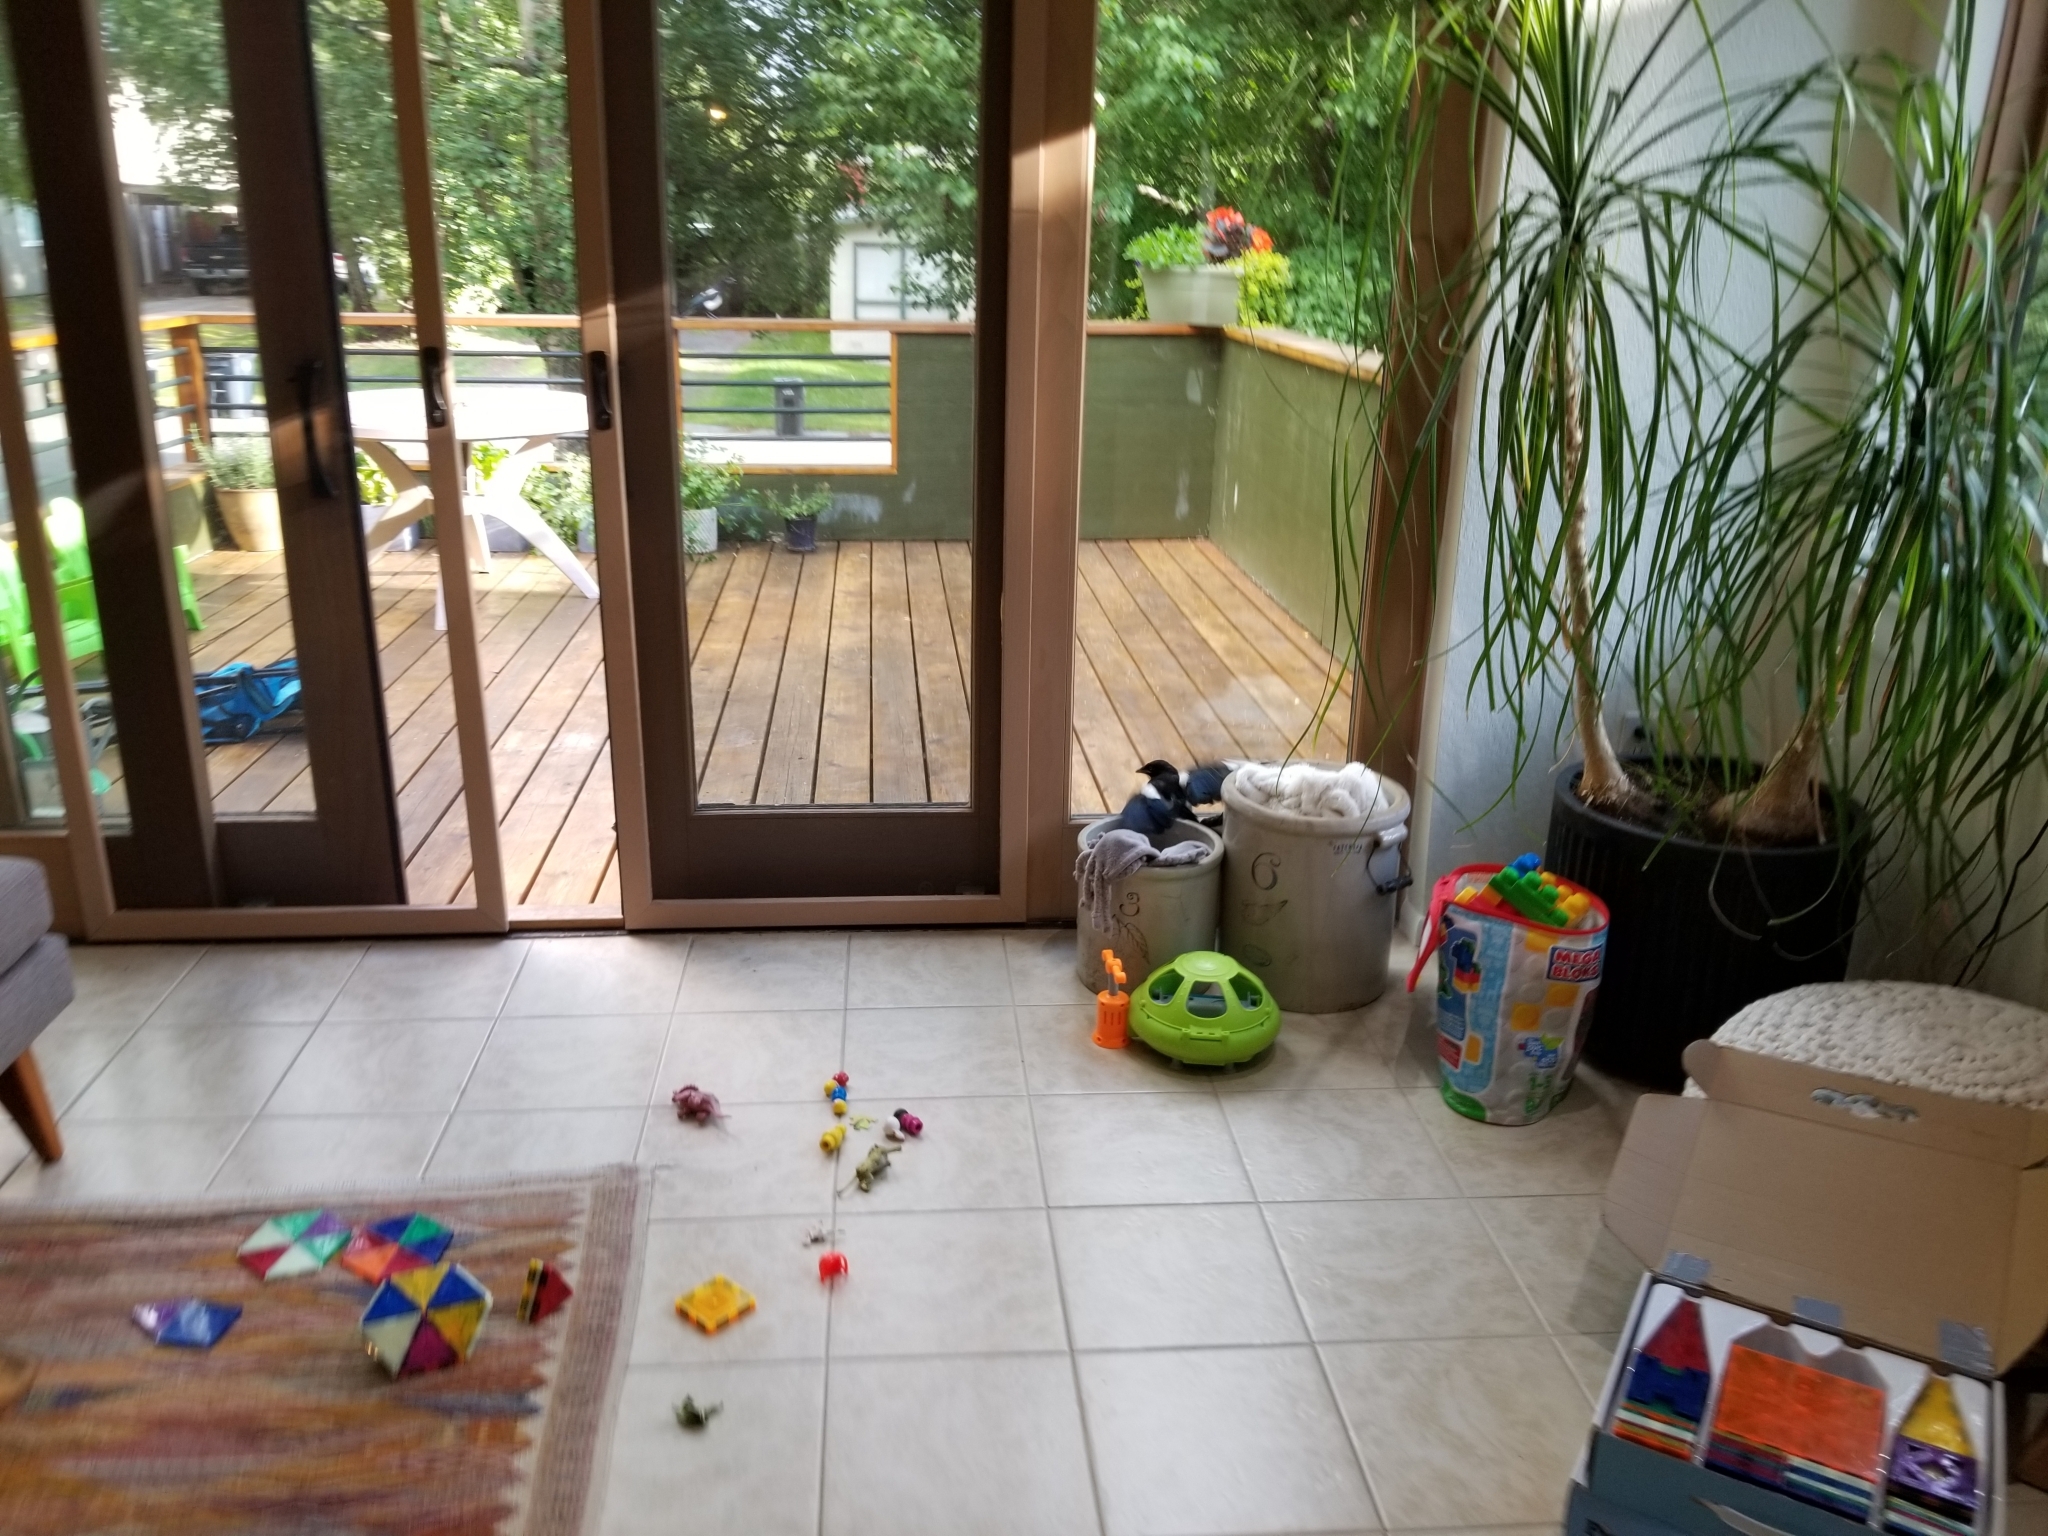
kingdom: Animalia
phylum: Chordata
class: Aves
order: Passeriformes
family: Corvidae
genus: Pica
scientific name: Pica hudsonia
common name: Black-billed magpie
